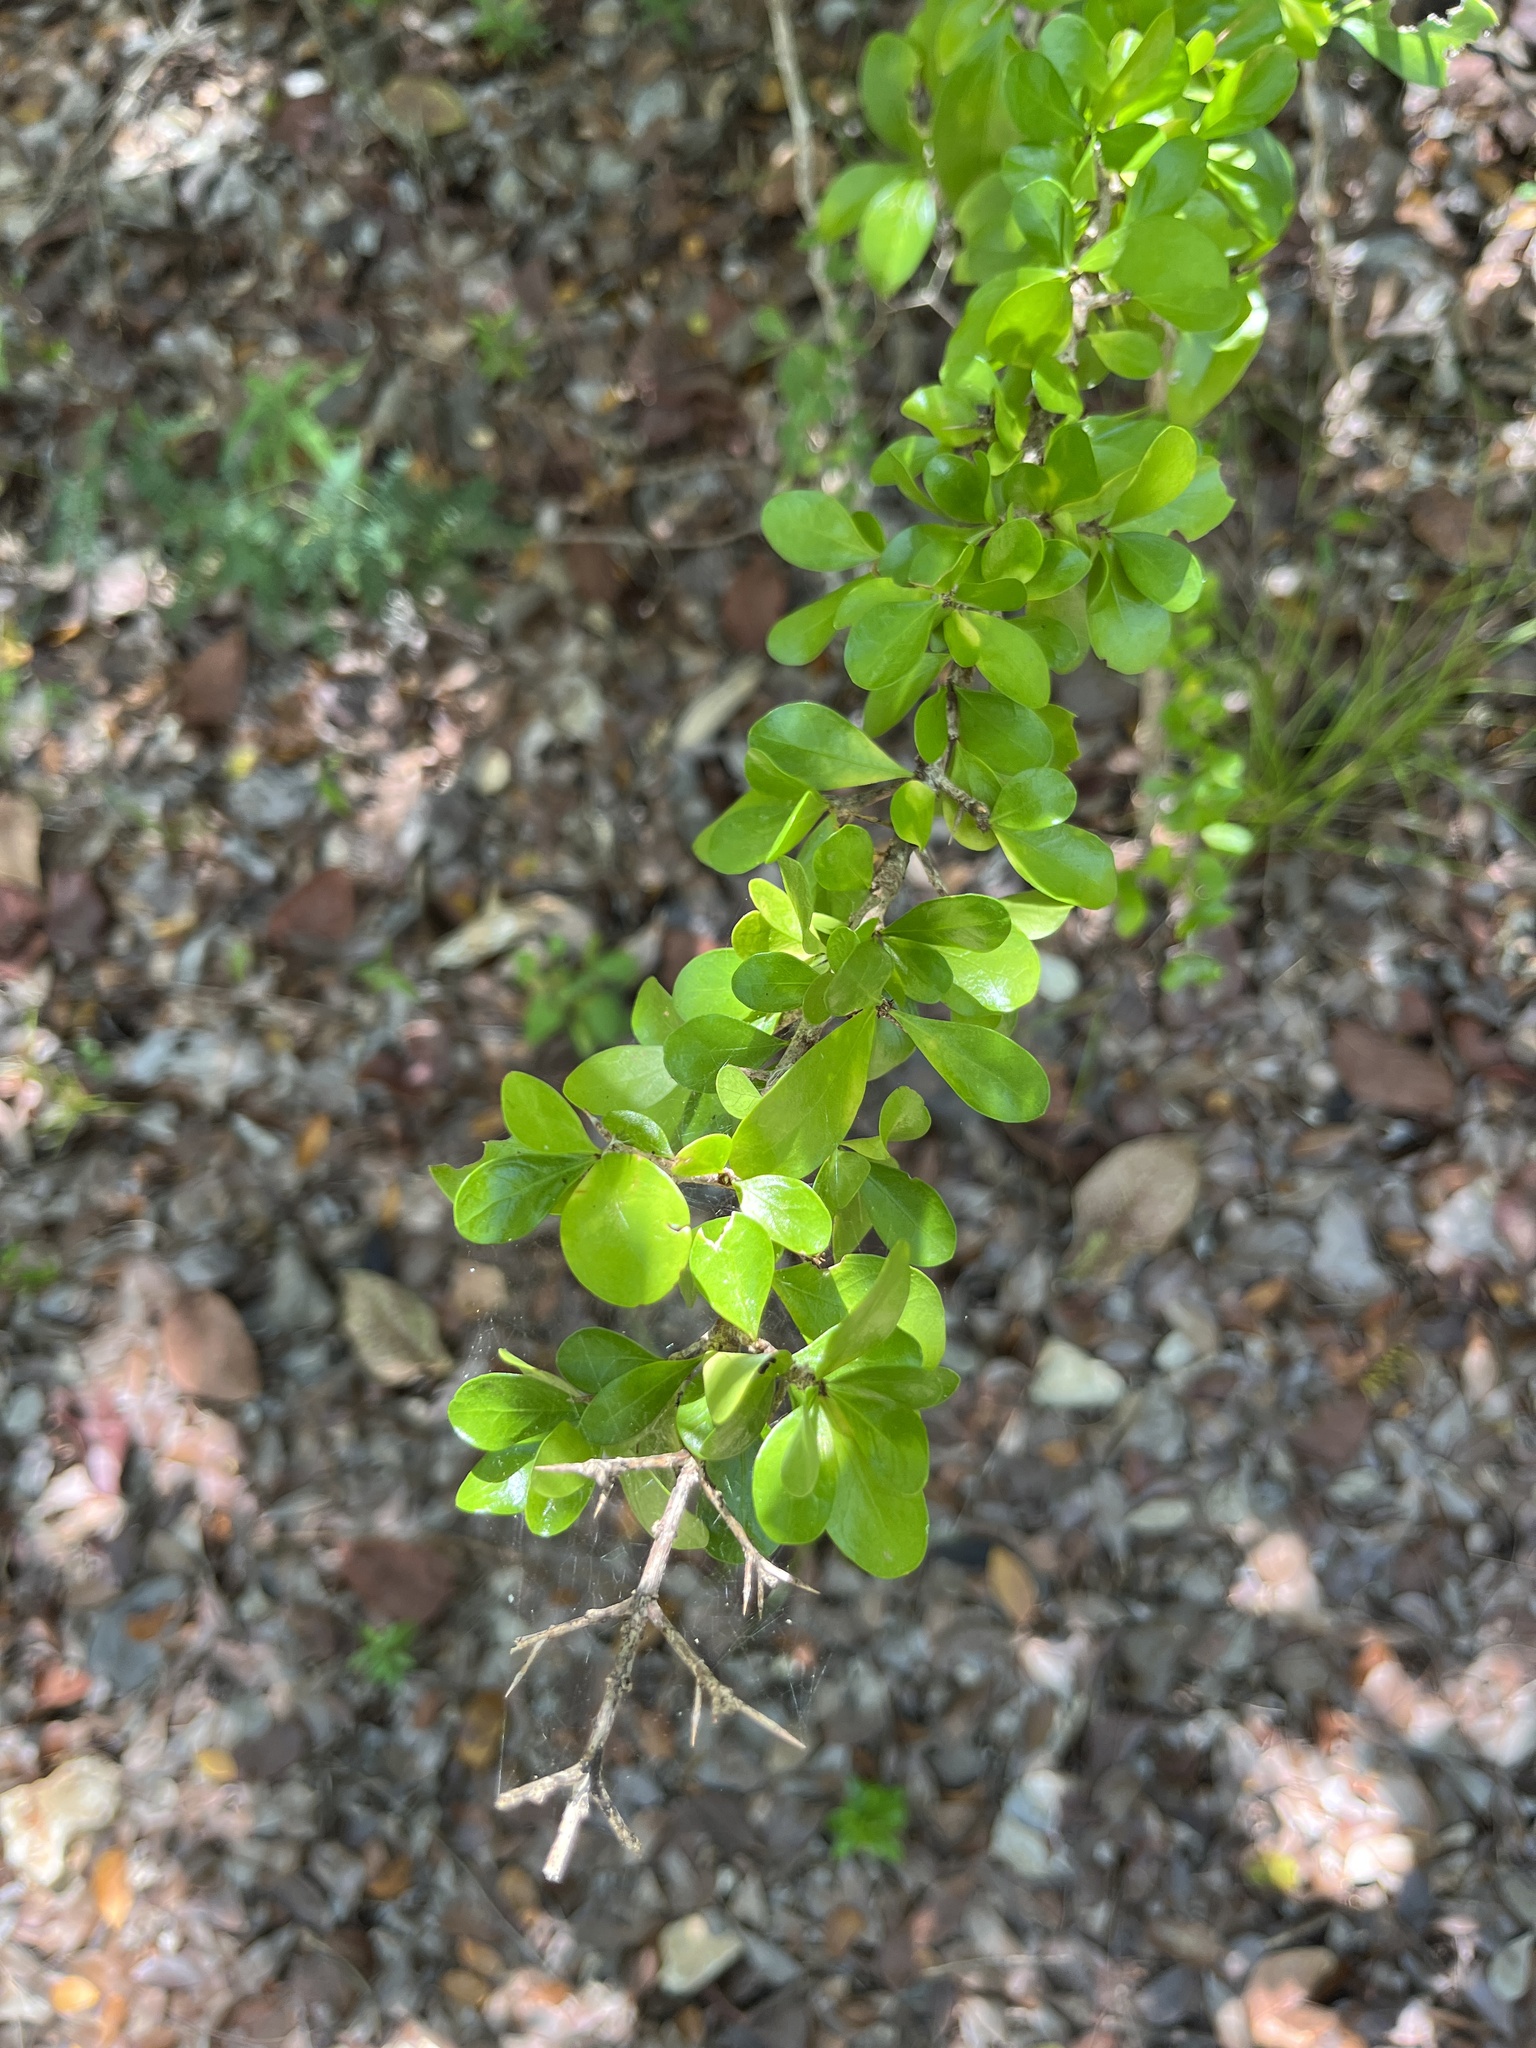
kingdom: Plantae
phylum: Tracheophyta
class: Magnoliopsida
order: Gentianales
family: Rubiaceae
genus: Randia
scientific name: Randia aculeata
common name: Inkberry
